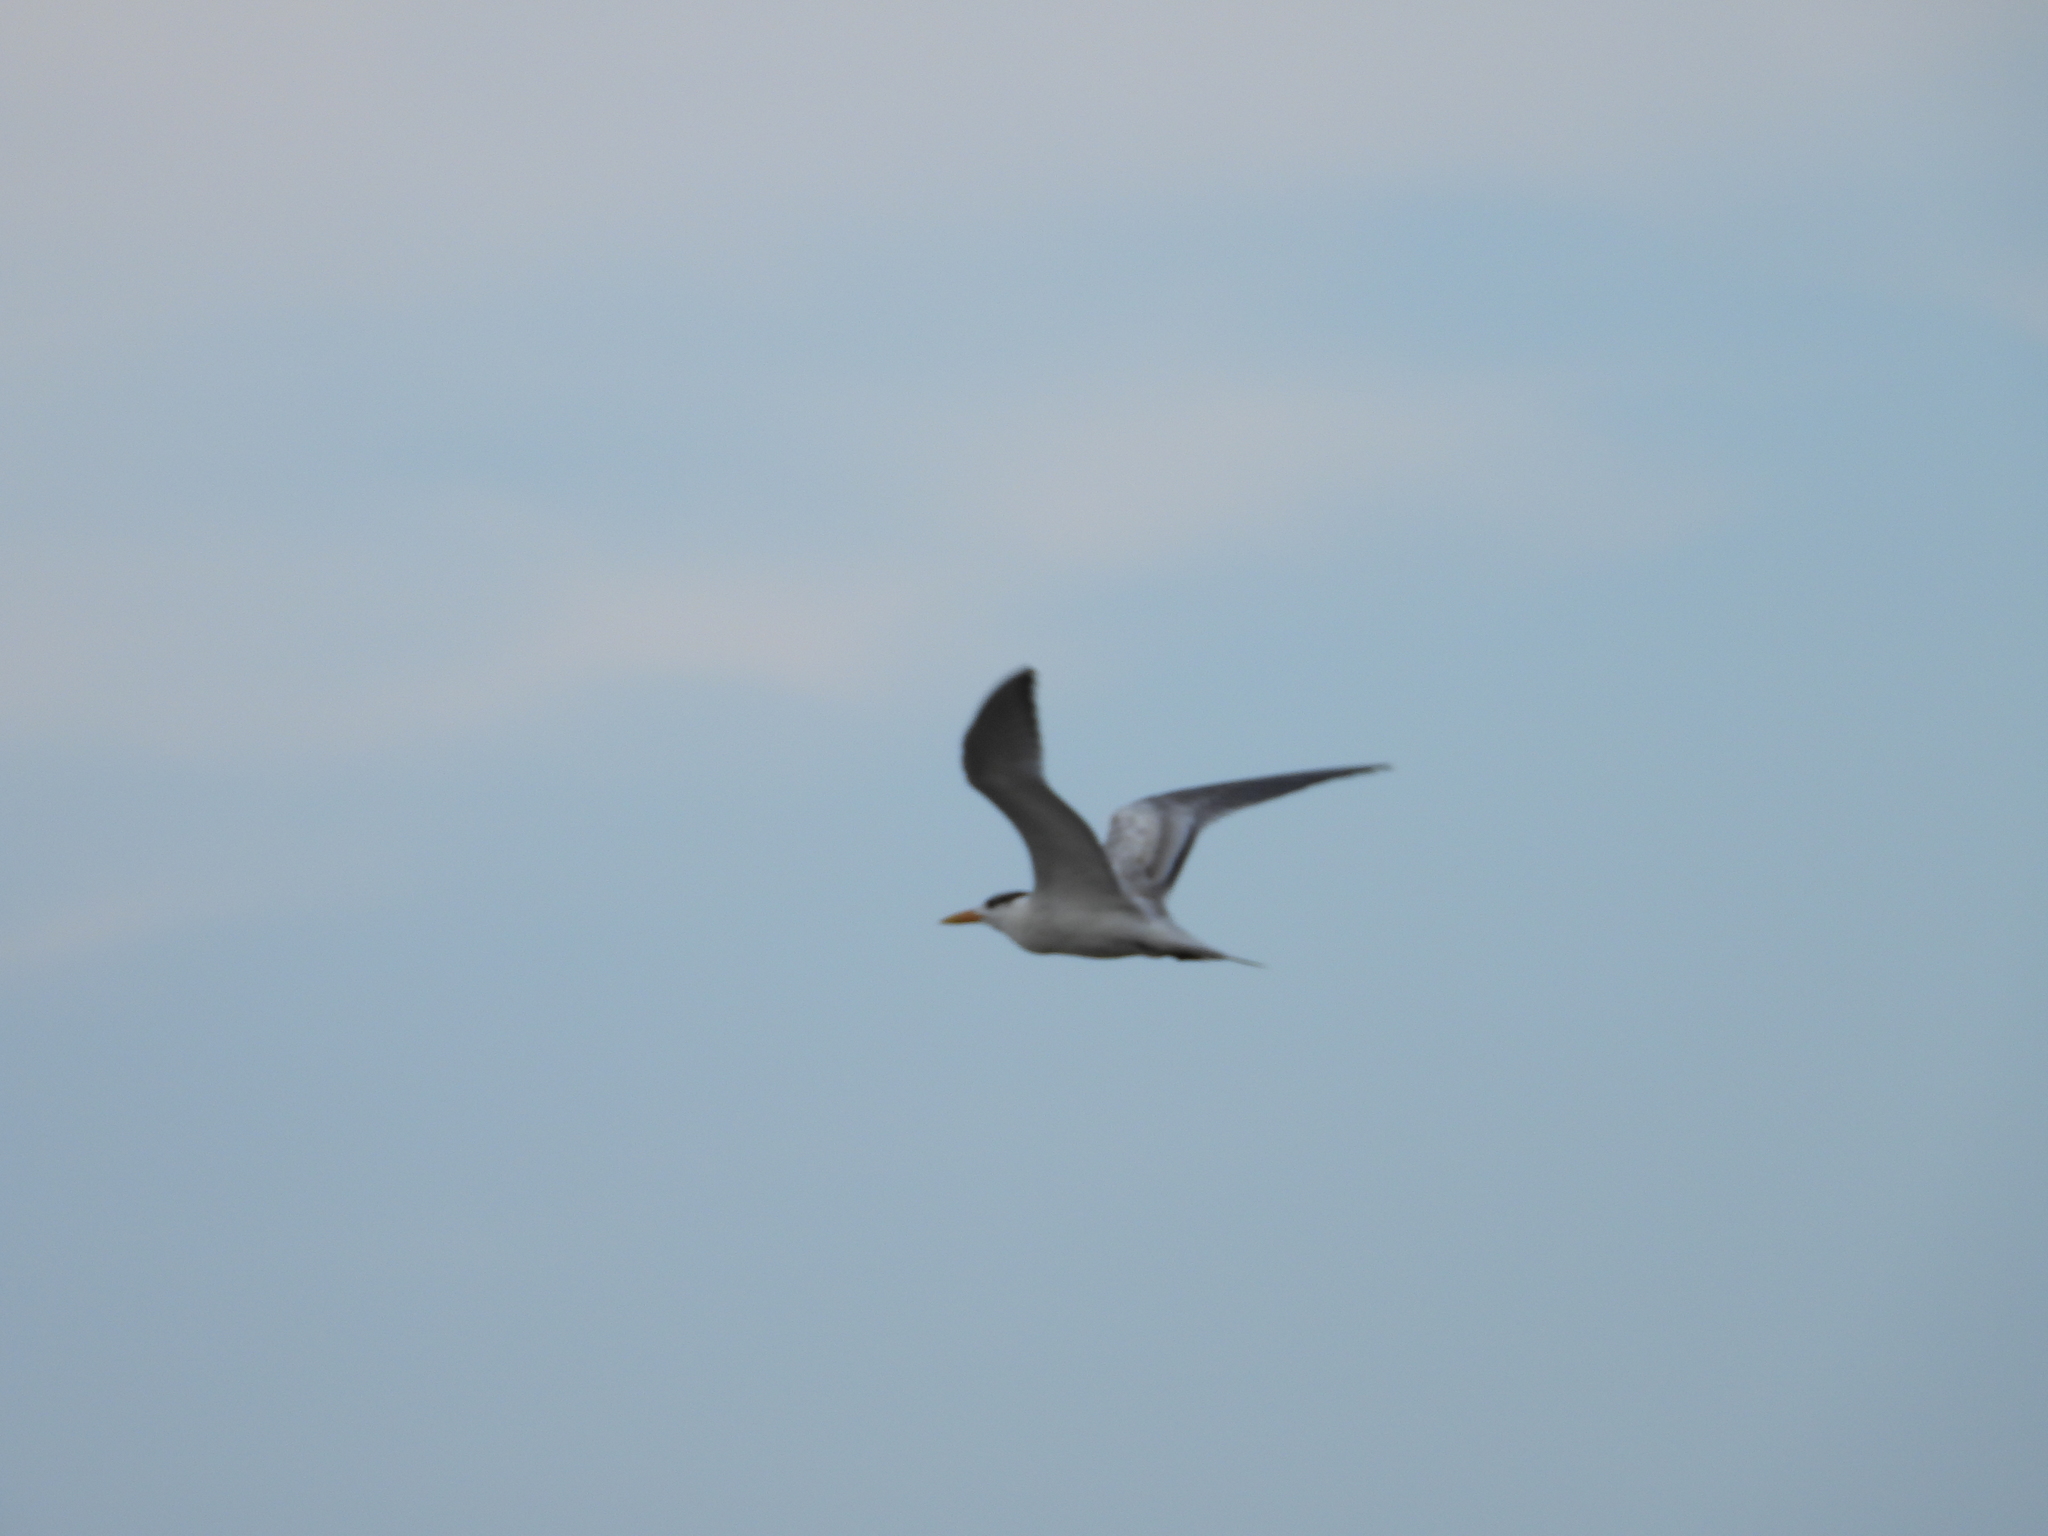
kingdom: Animalia
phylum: Chordata
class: Aves
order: Charadriiformes
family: Laridae
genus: Thalasseus
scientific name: Thalasseus maximus
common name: Royal tern
